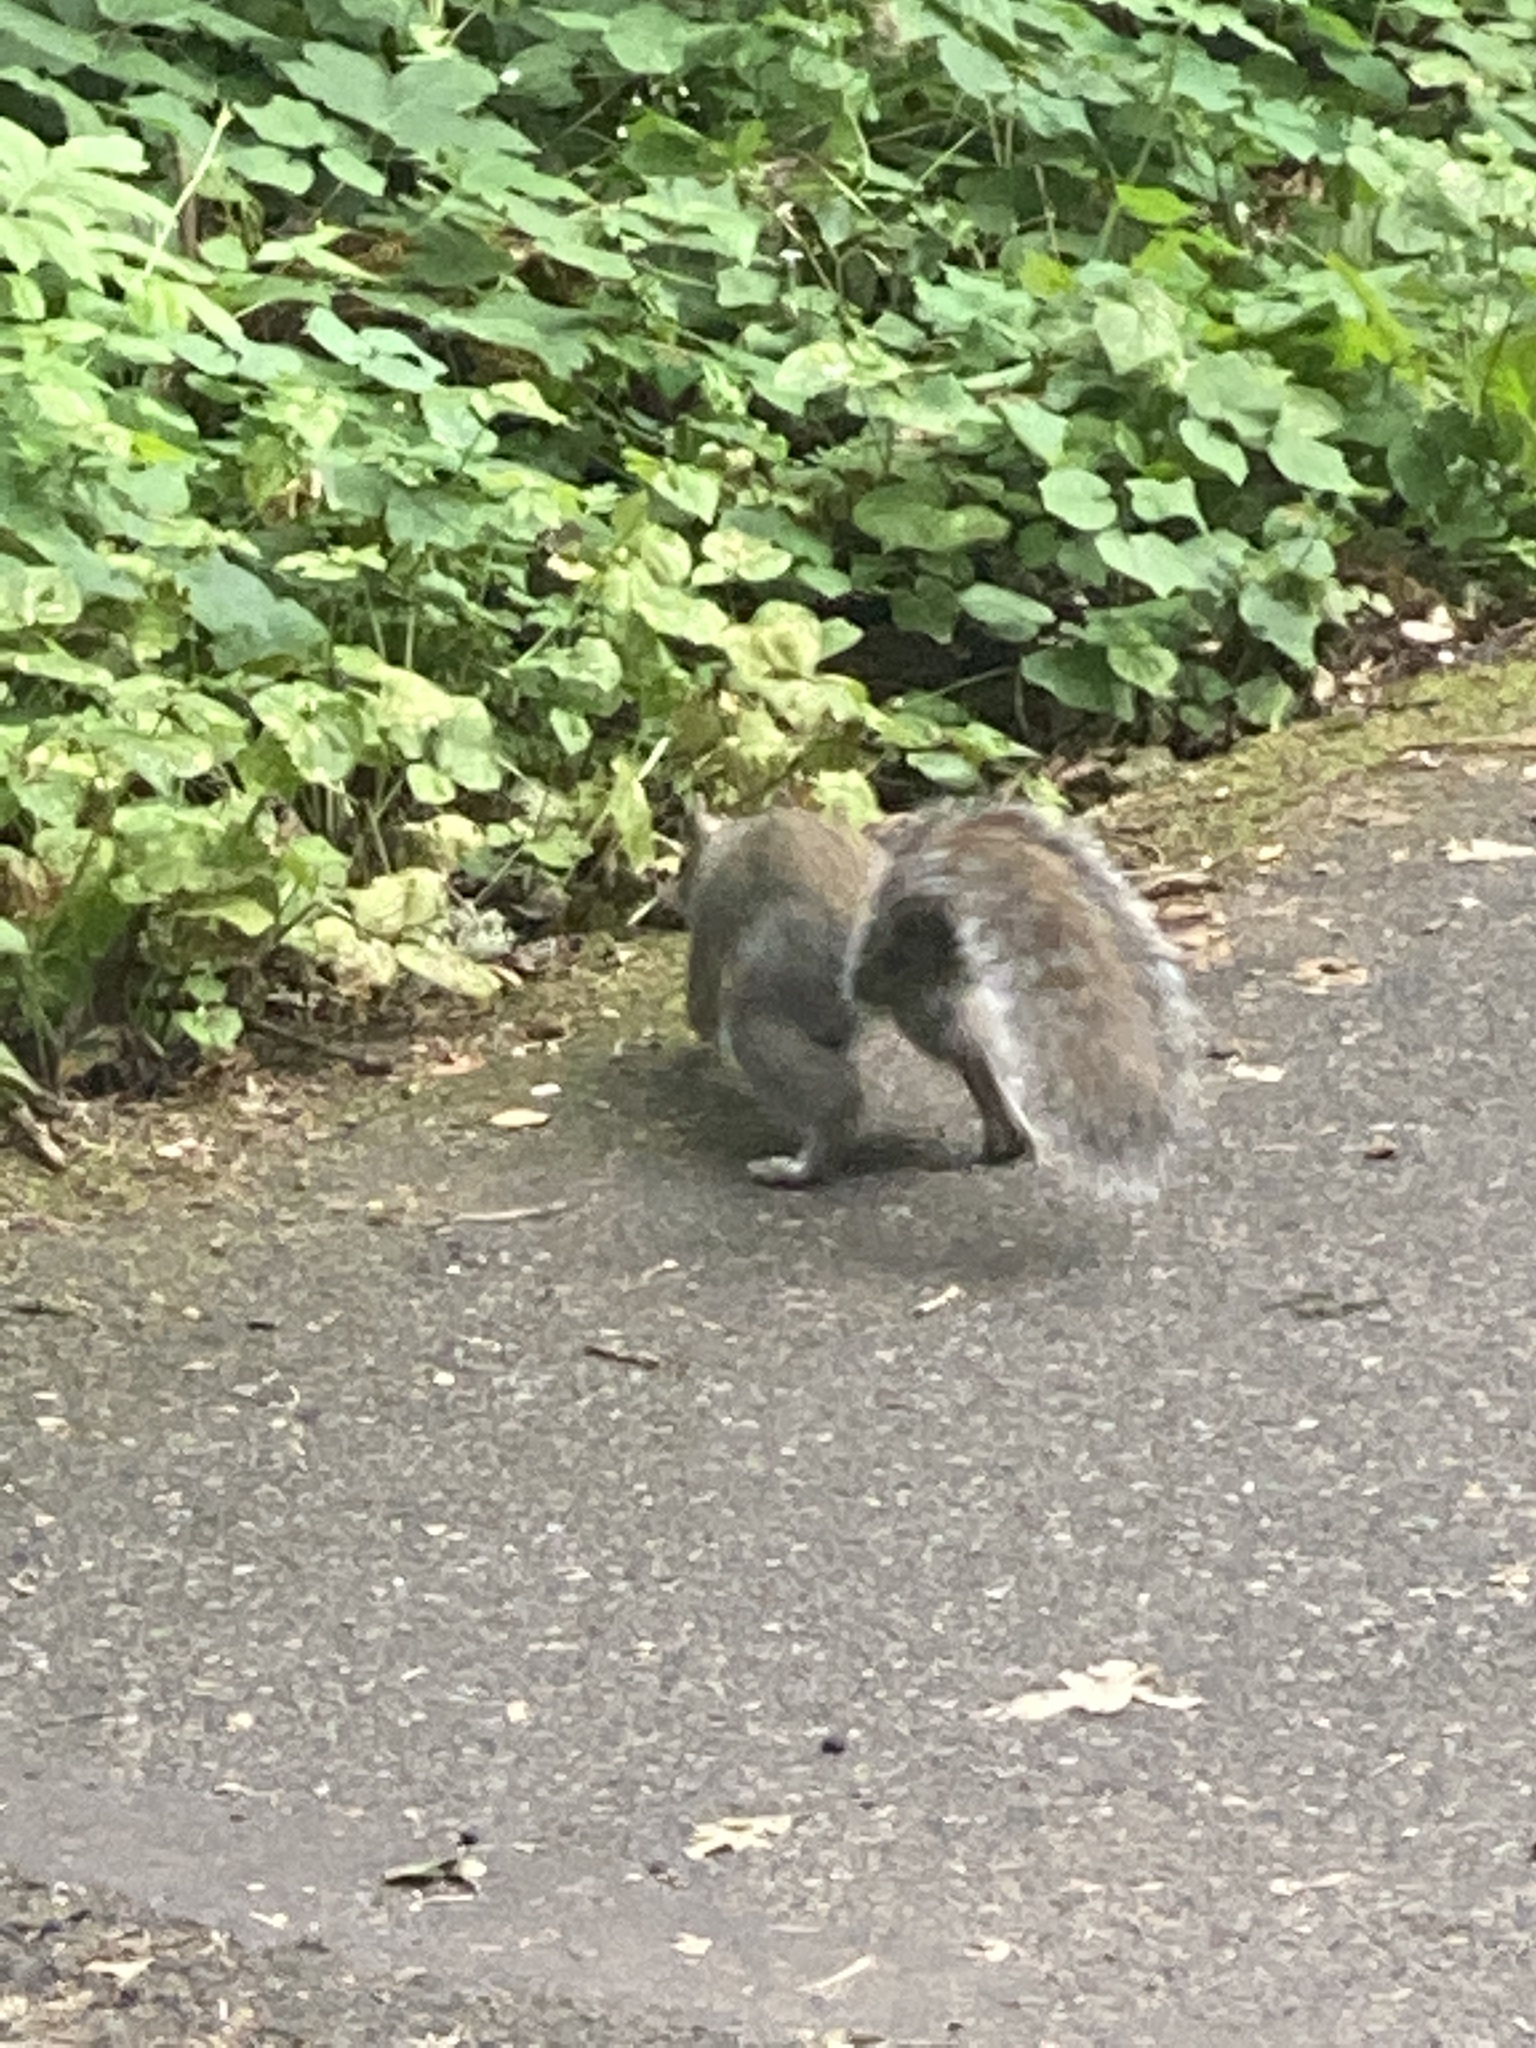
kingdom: Animalia
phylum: Chordata
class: Mammalia
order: Rodentia
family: Sciuridae
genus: Sciurus
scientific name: Sciurus carolinensis
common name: Eastern gray squirrel
